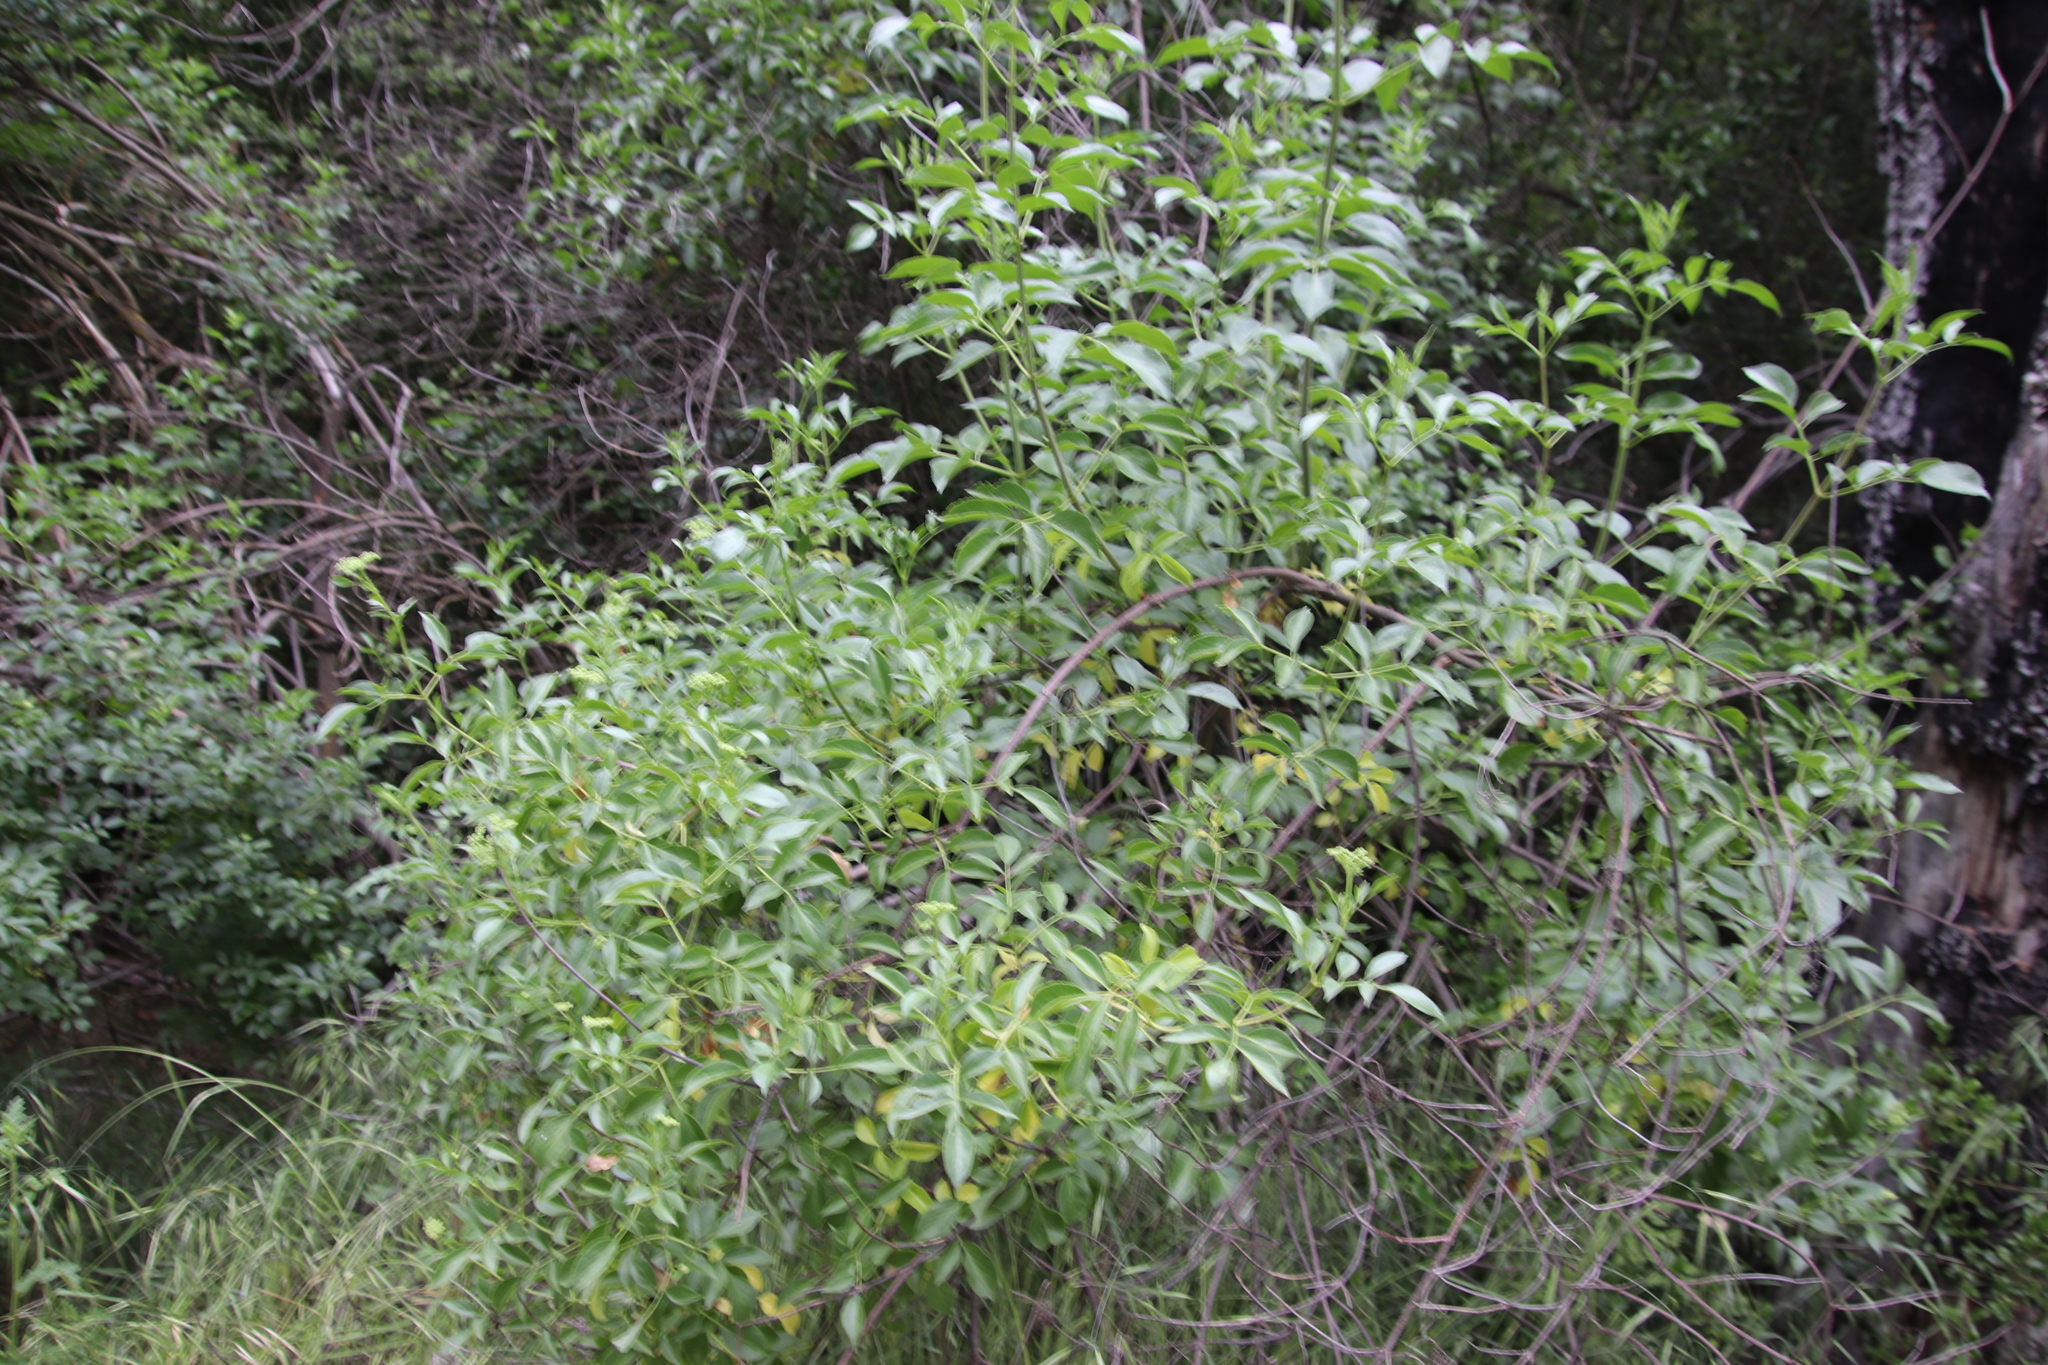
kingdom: Plantae
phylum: Tracheophyta
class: Magnoliopsida
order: Dipsacales
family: Viburnaceae
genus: Sambucus
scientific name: Sambucus cerulea
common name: Blue elder
